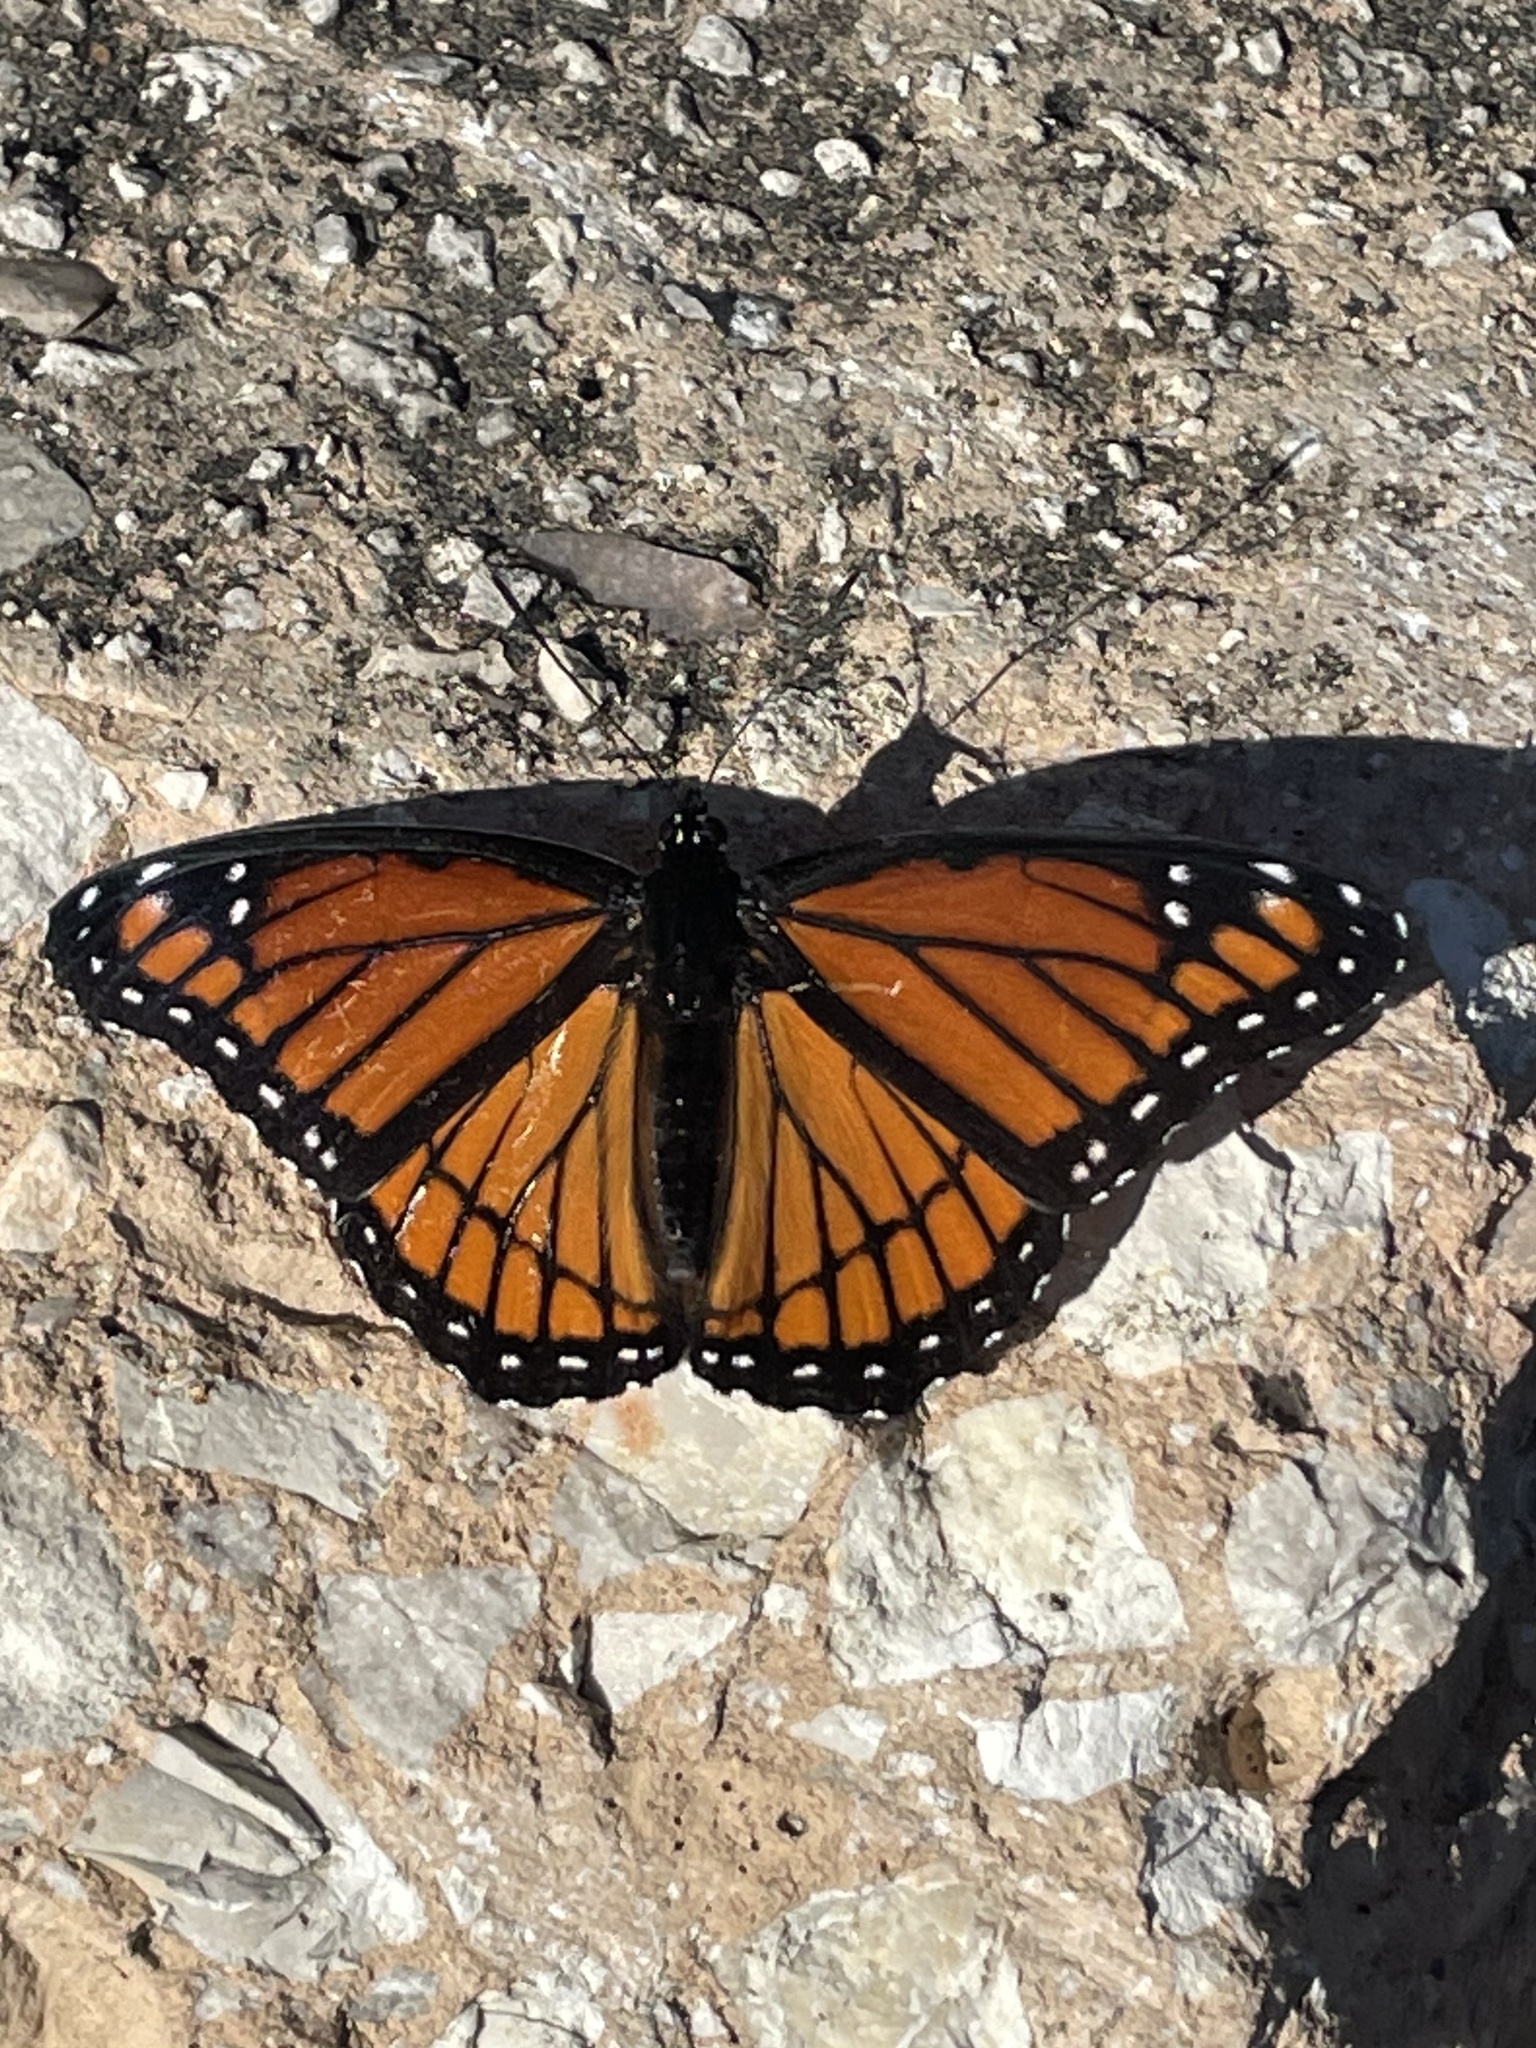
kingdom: Animalia
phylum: Arthropoda
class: Insecta
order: Lepidoptera
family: Nymphalidae
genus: Limenitis
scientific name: Limenitis archippus
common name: Viceroy
